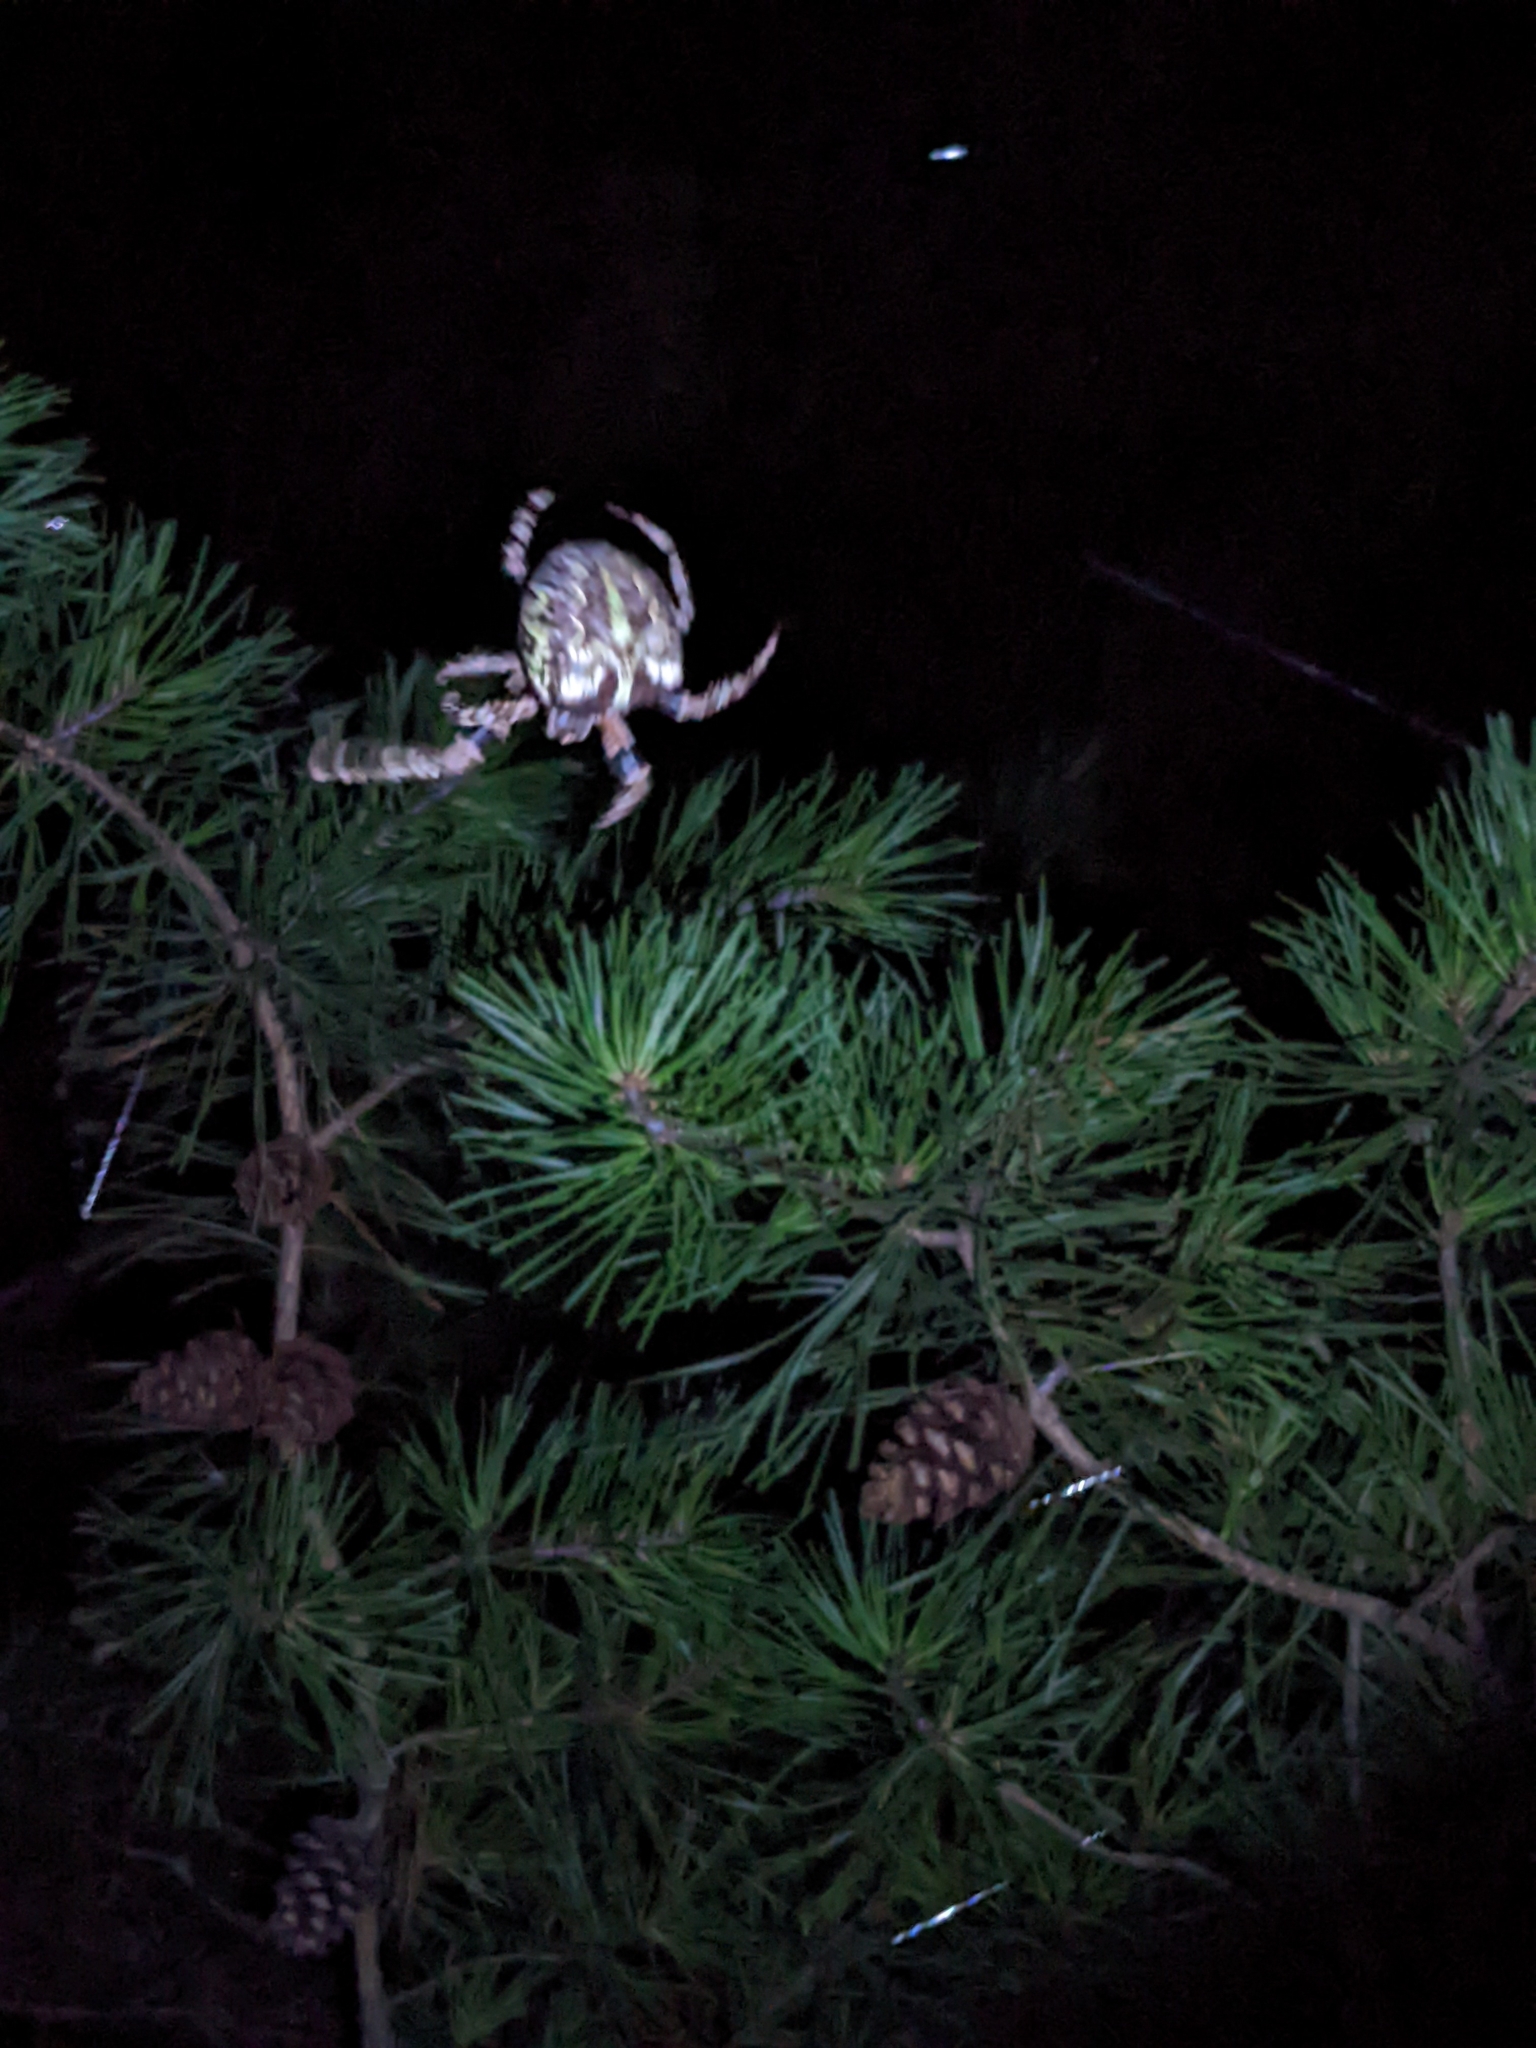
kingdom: Animalia
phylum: Arthropoda
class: Arachnida
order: Araneae
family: Araneidae
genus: Araneus
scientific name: Araneus bicentenarius
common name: Giant lichen orbweaver
